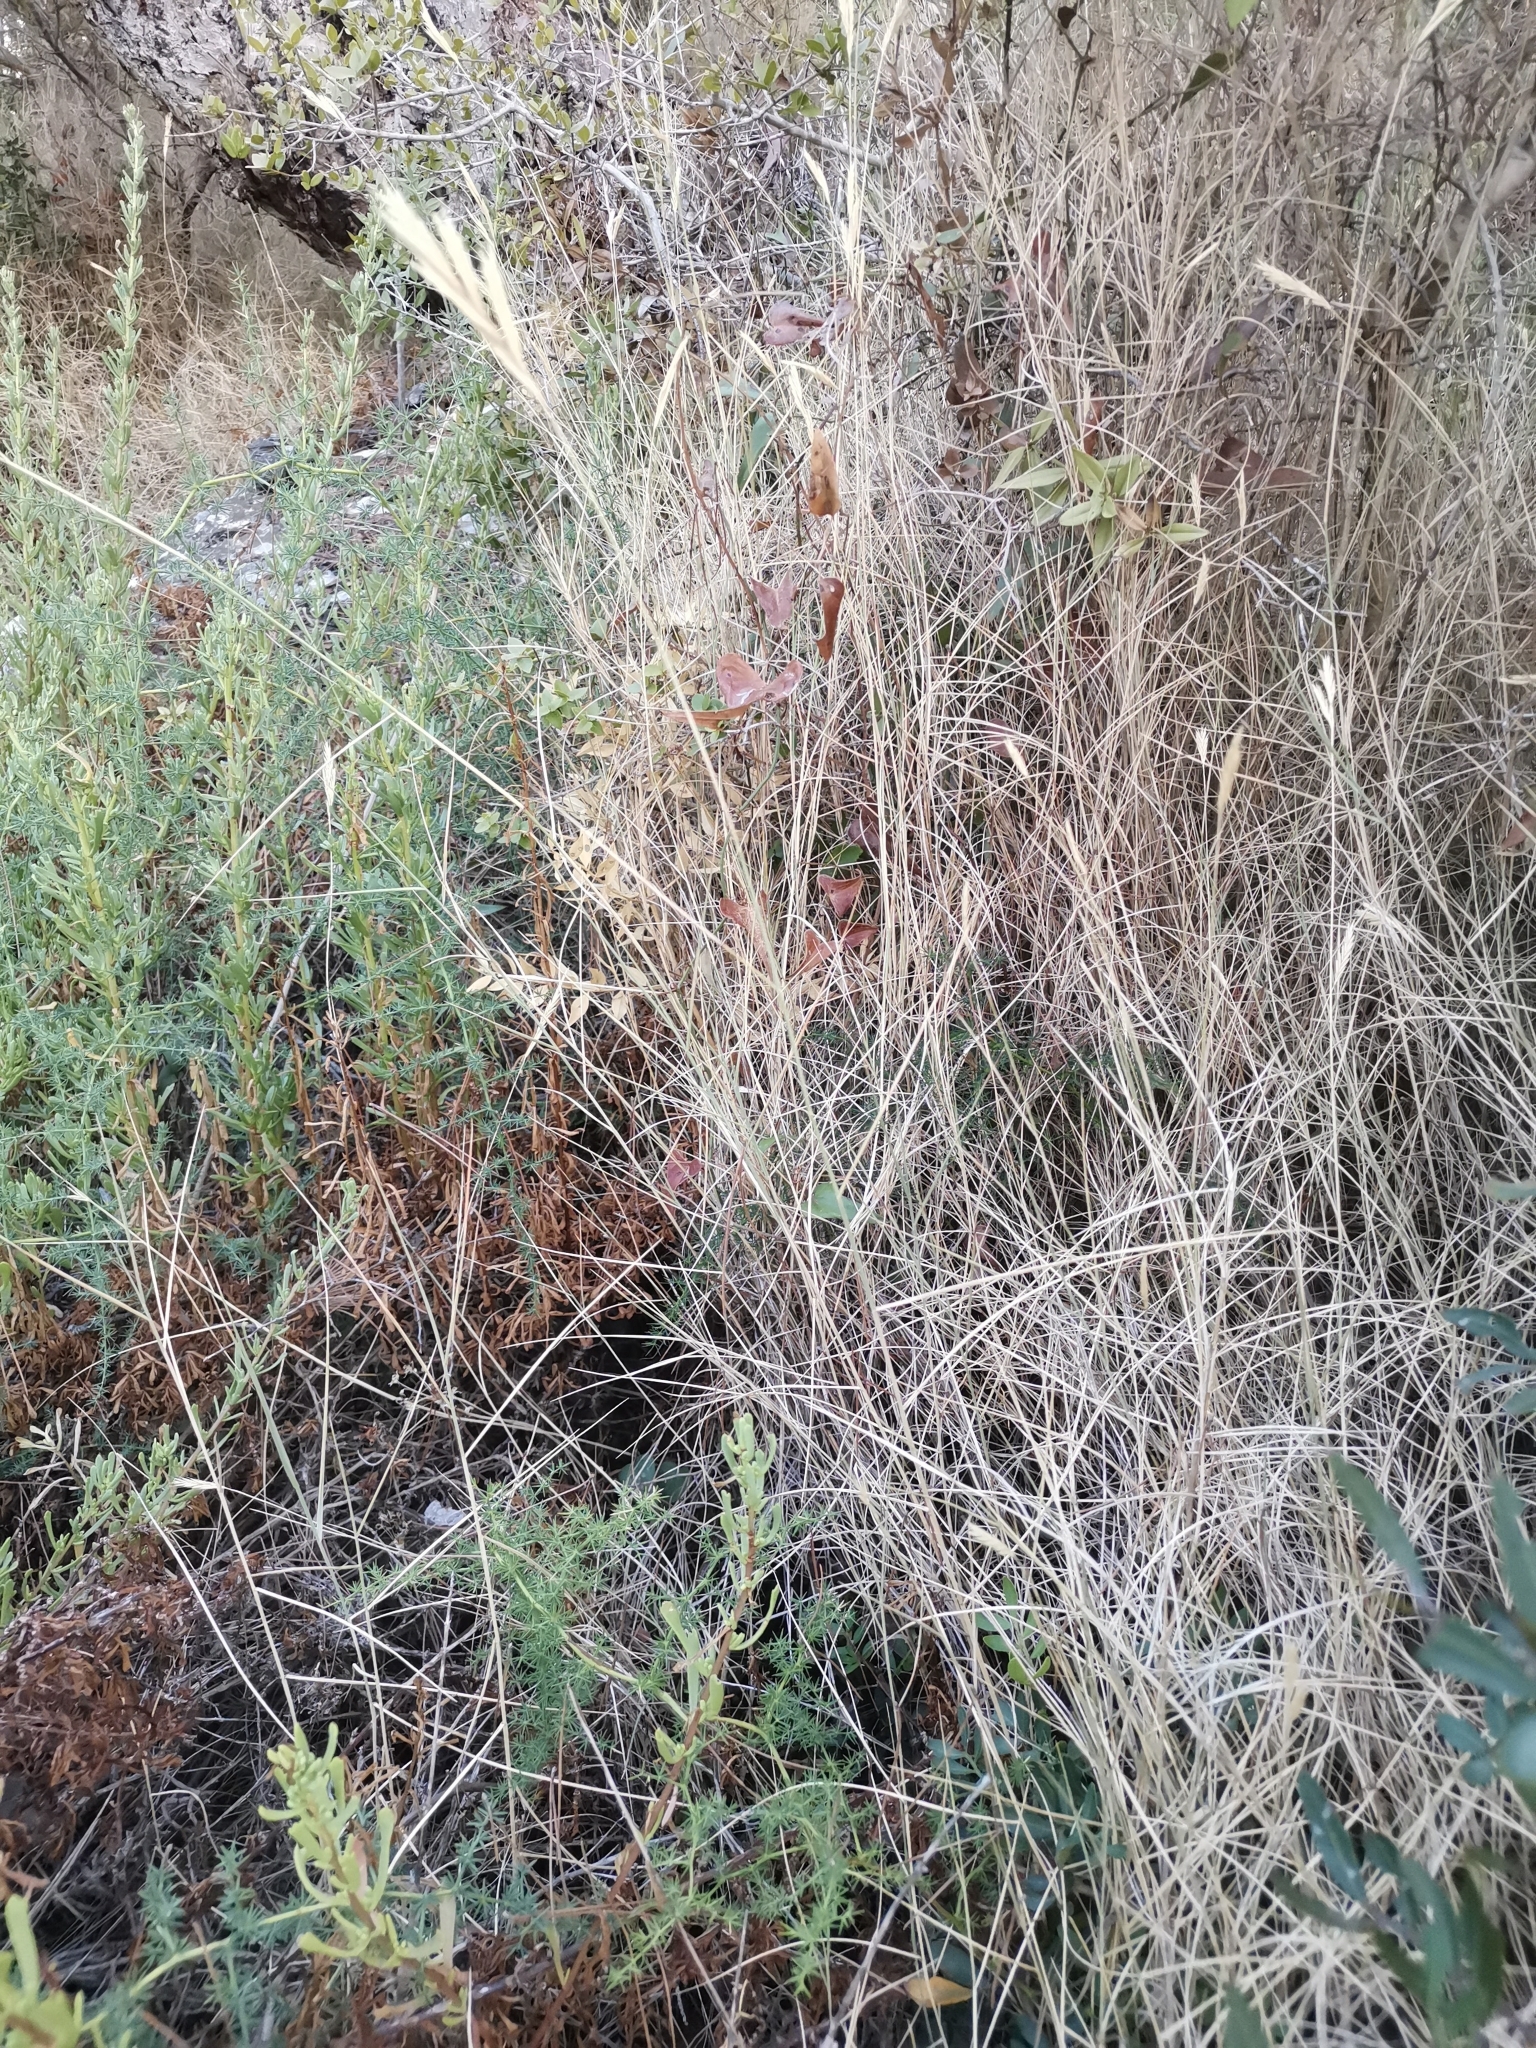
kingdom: Plantae
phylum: Tracheophyta
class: Liliopsida
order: Poales
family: Poaceae
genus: Brachypodium
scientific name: Brachypodium retusum
